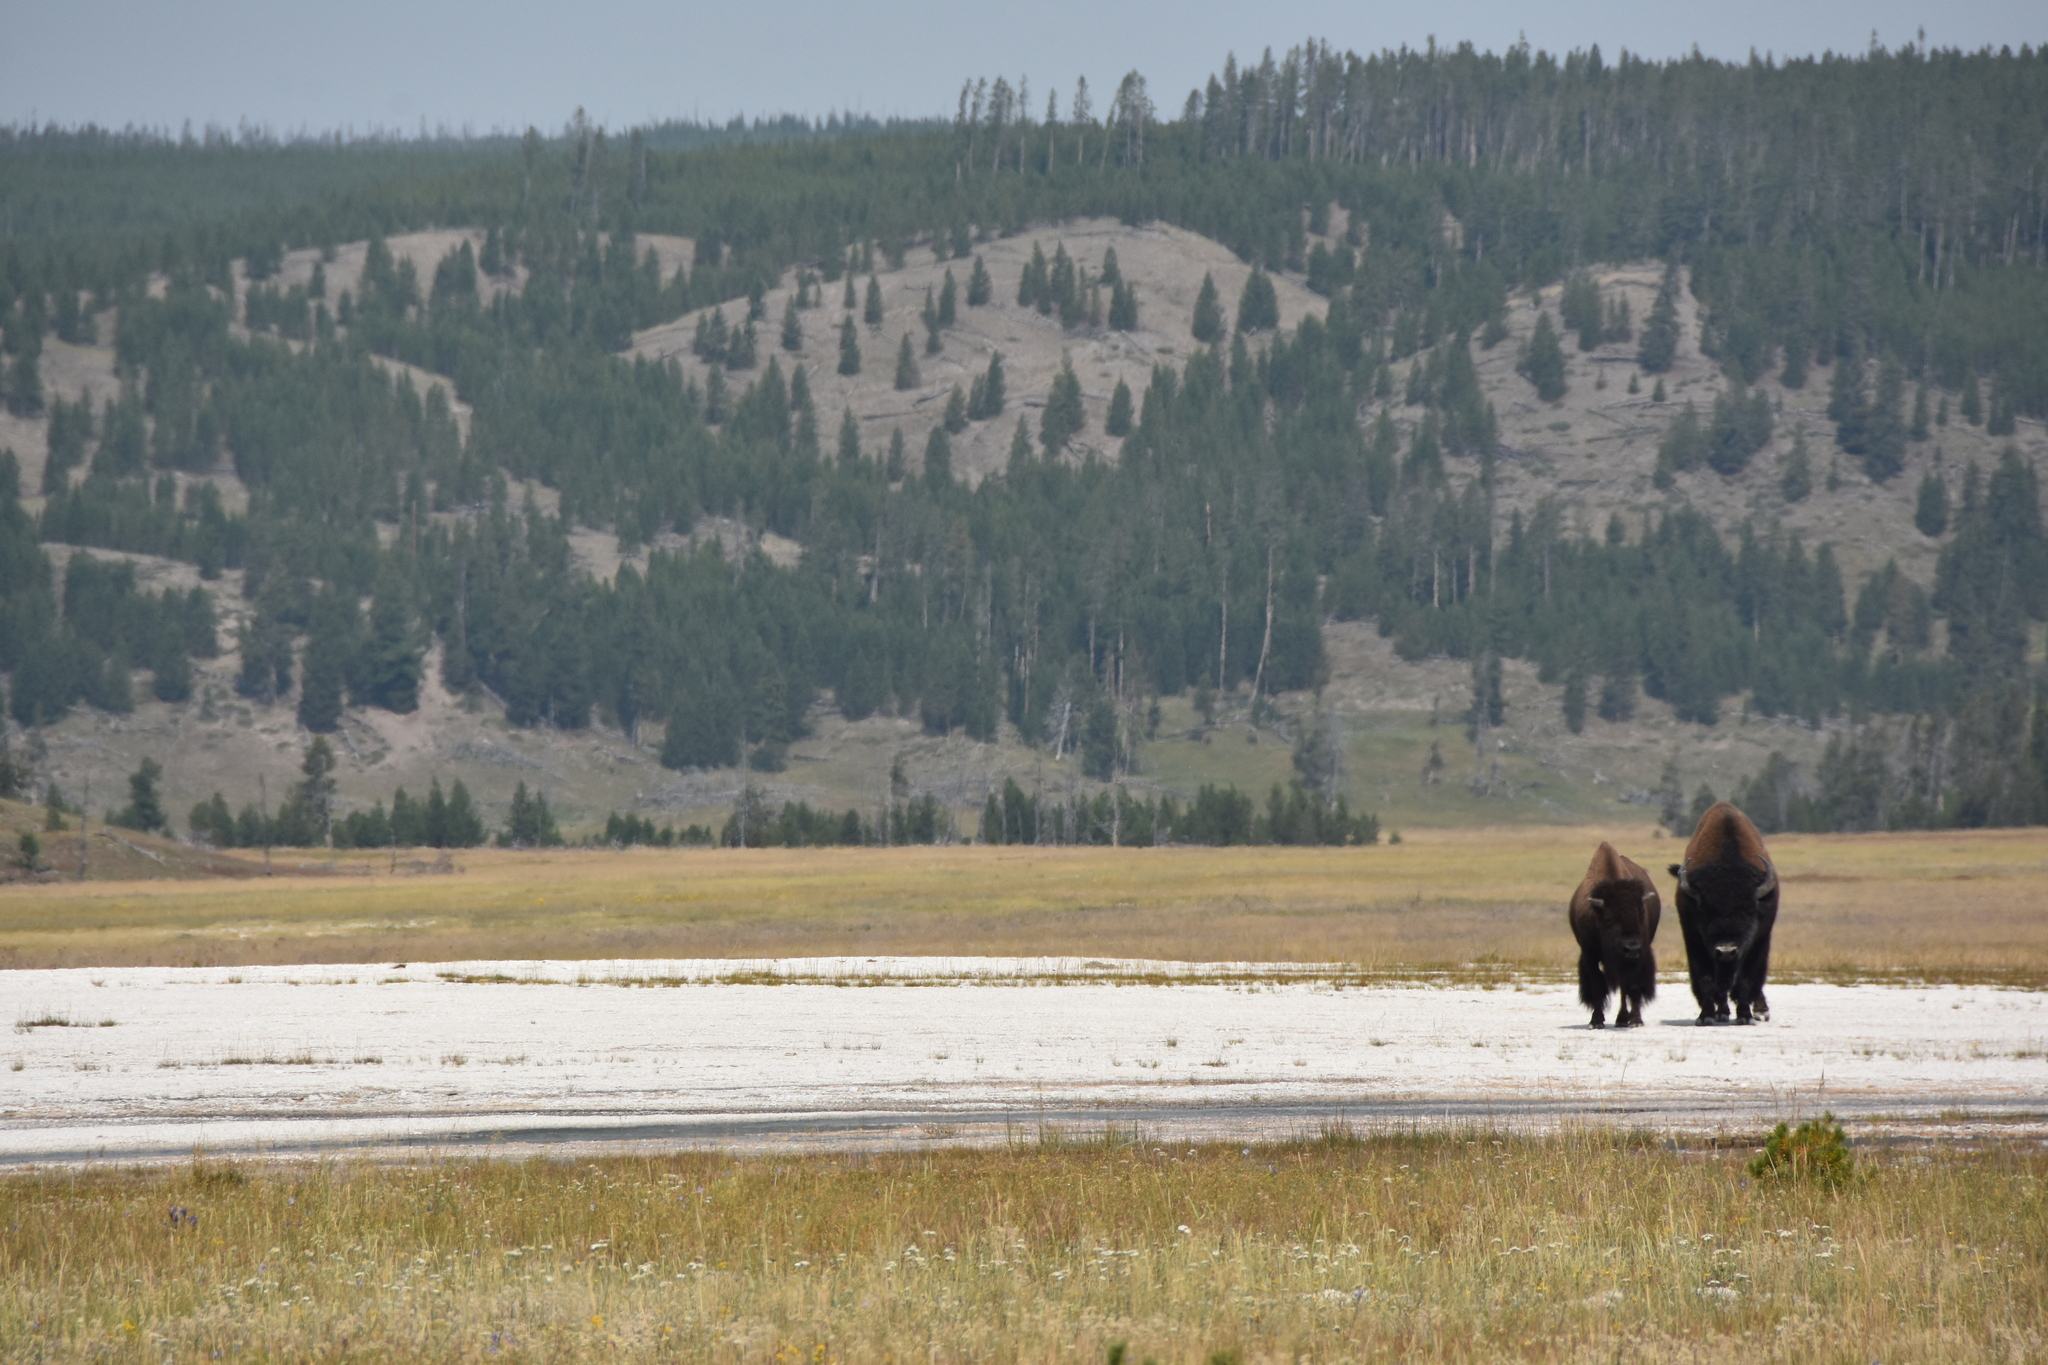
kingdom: Animalia
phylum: Chordata
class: Mammalia
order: Artiodactyla
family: Bovidae
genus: Bison
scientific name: Bison bison
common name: American bison
